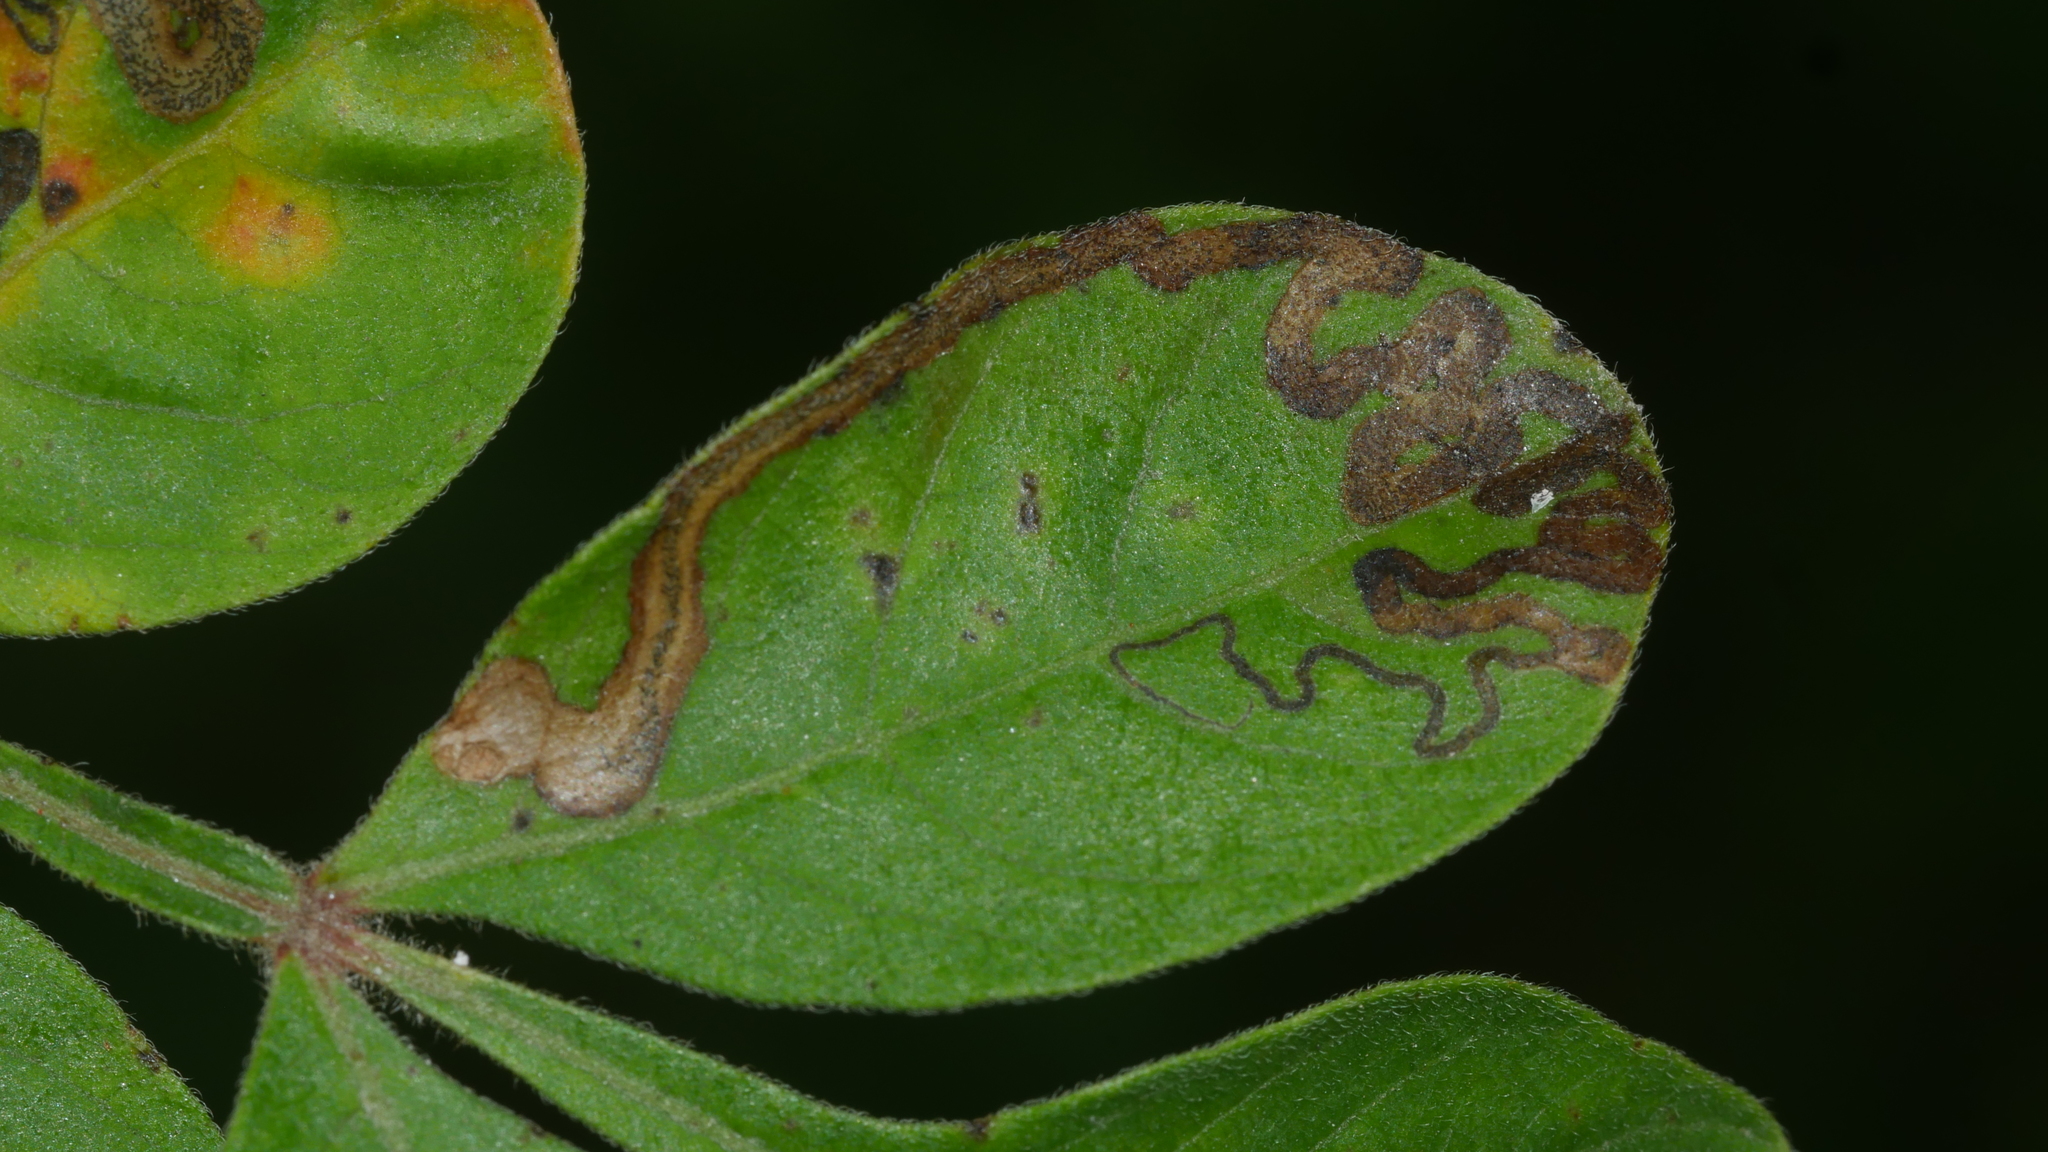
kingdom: Animalia
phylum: Arthropoda
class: Insecta
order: Lepidoptera
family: Nepticulidae
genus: Stigmella
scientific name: Stigmella intermedia
